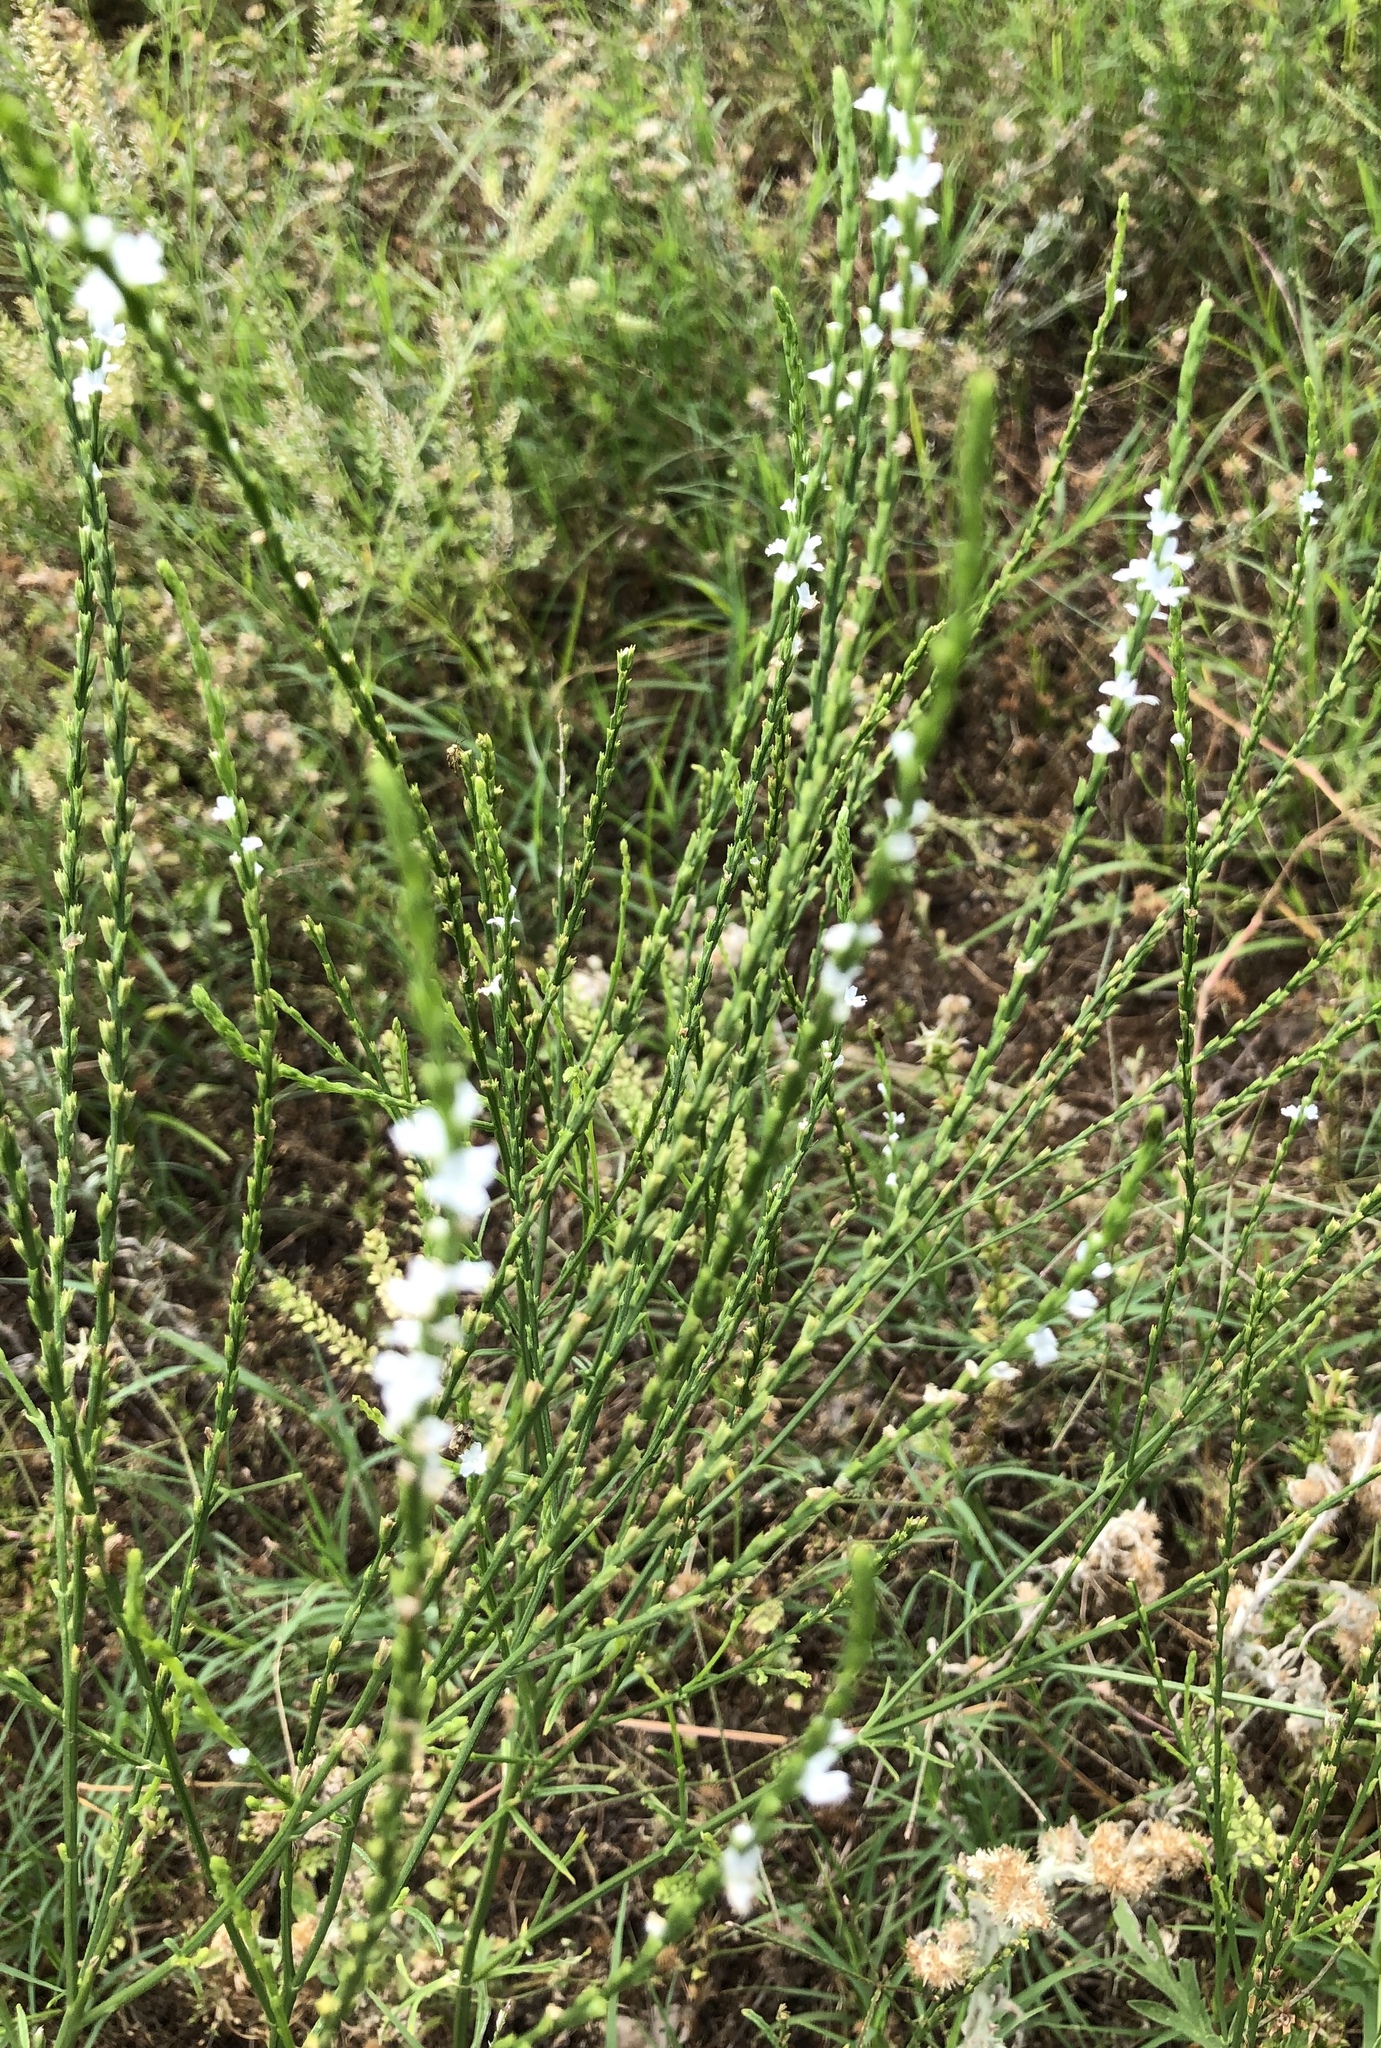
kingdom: Plantae
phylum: Tracheophyta
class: Magnoliopsida
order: Lamiales
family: Verbenaceae
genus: Verbena
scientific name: Verbena halei
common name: Texas vervain
